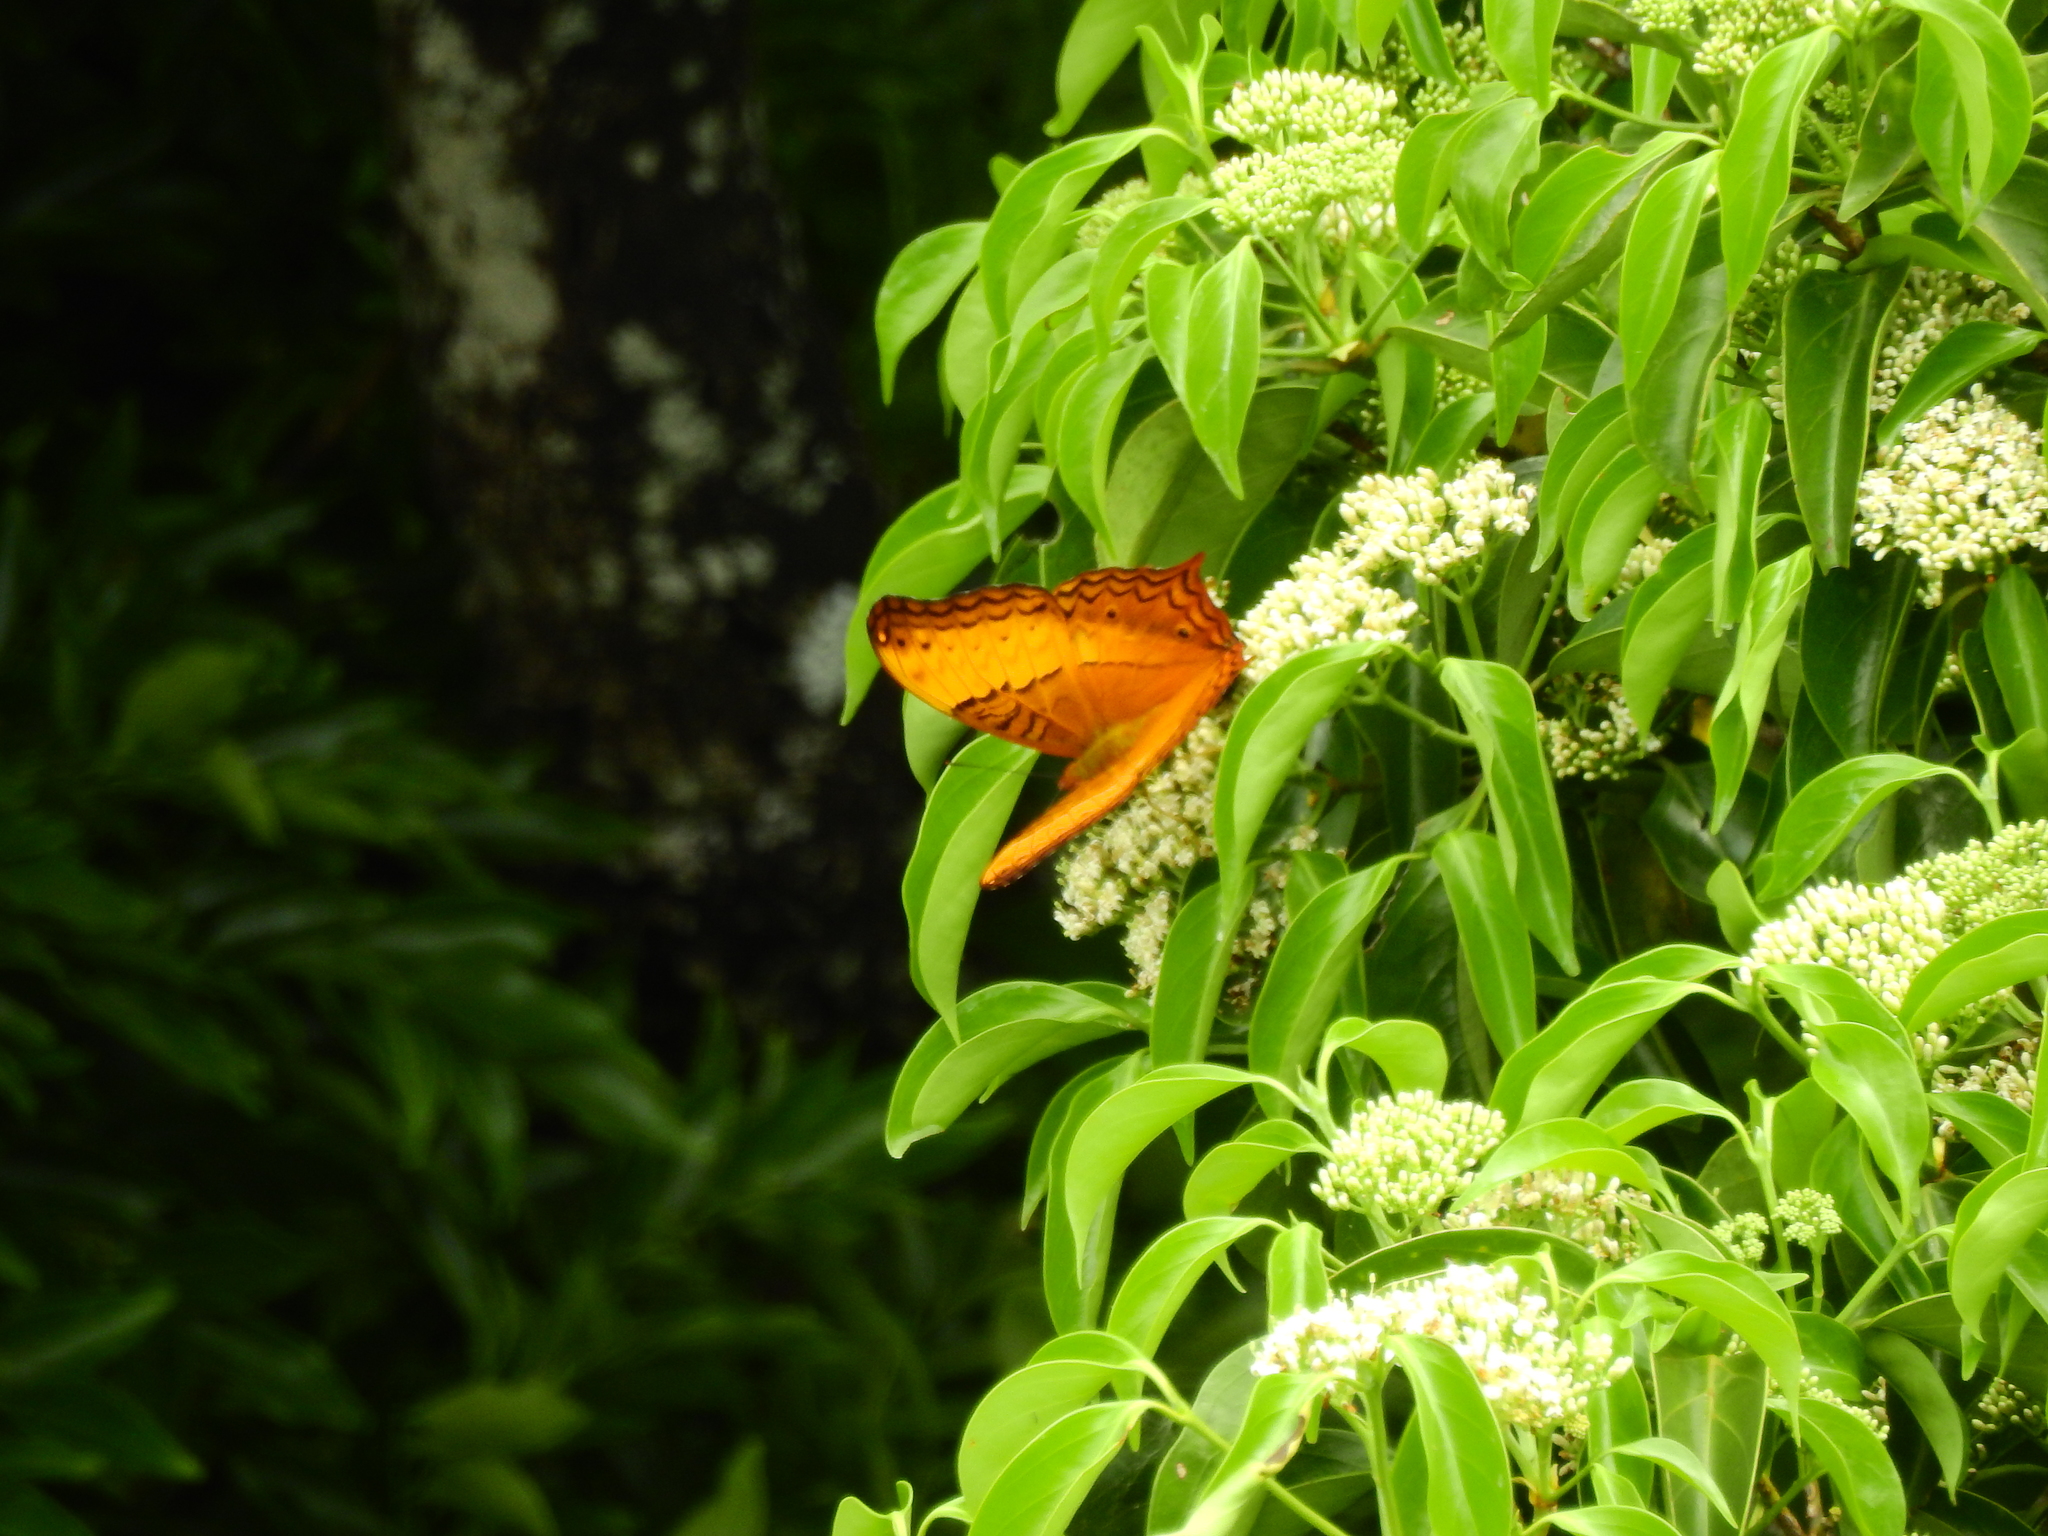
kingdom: Animalia
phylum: Arthropoda
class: Insecta
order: Lepidoptera
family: Nymphalidae
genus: Vindula
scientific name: Vindula erota
